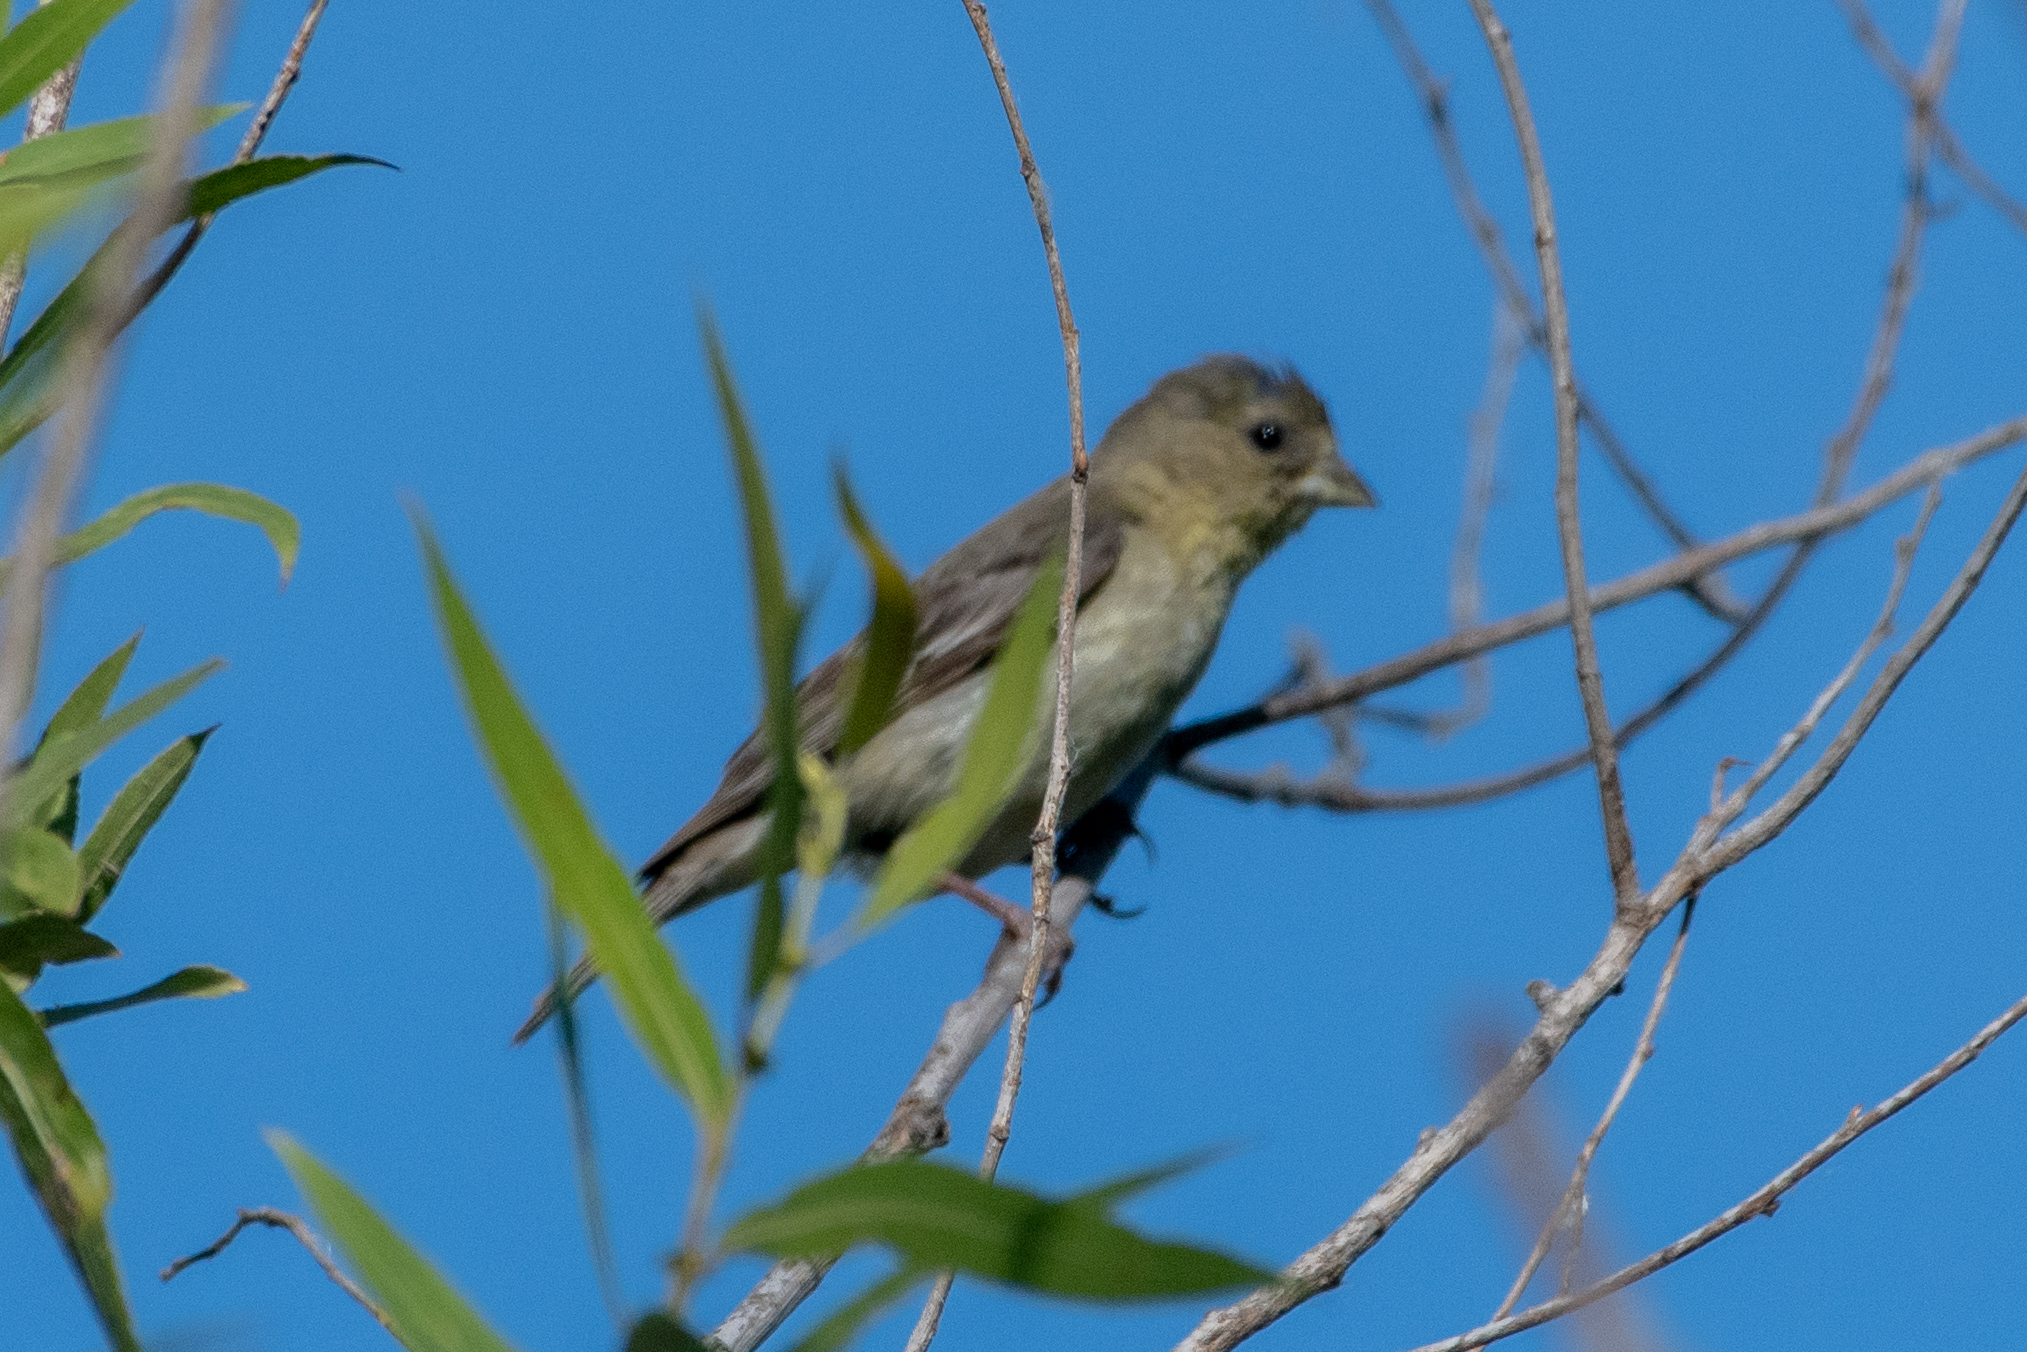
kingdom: Animalia
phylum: Chordata
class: Aves
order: Passeriformes
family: Fringillidae
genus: Spinus
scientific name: Spinus psaltria
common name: Lesser goldfinch
